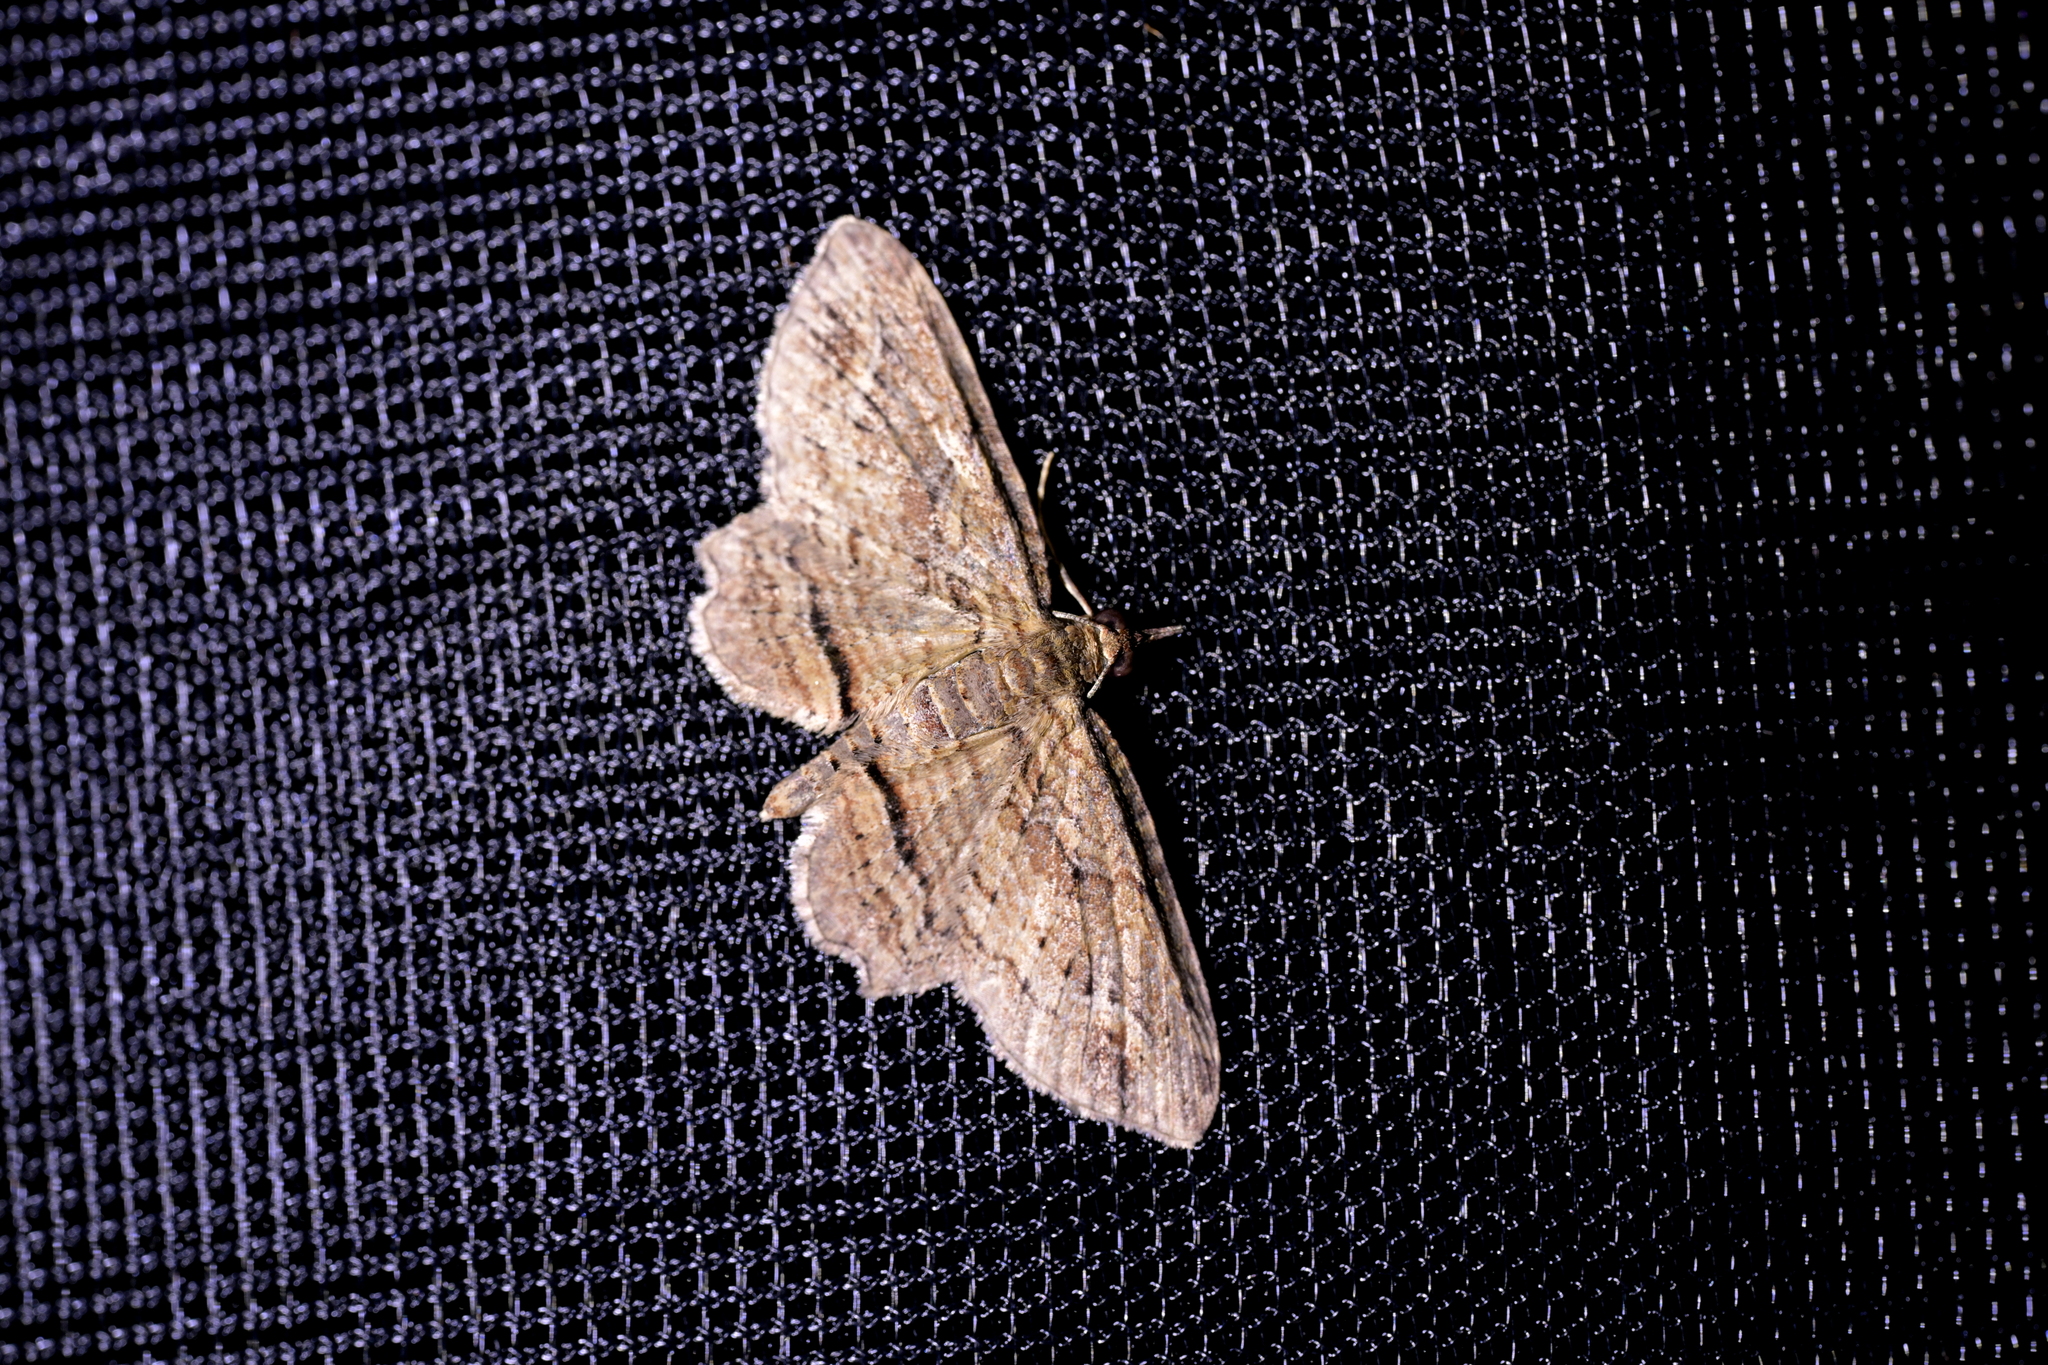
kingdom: Animalia
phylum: Arthropoda
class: Insecta
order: Lepidoptera
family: Geometridae
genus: Chloroclystis
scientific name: Chloroclystis filata
